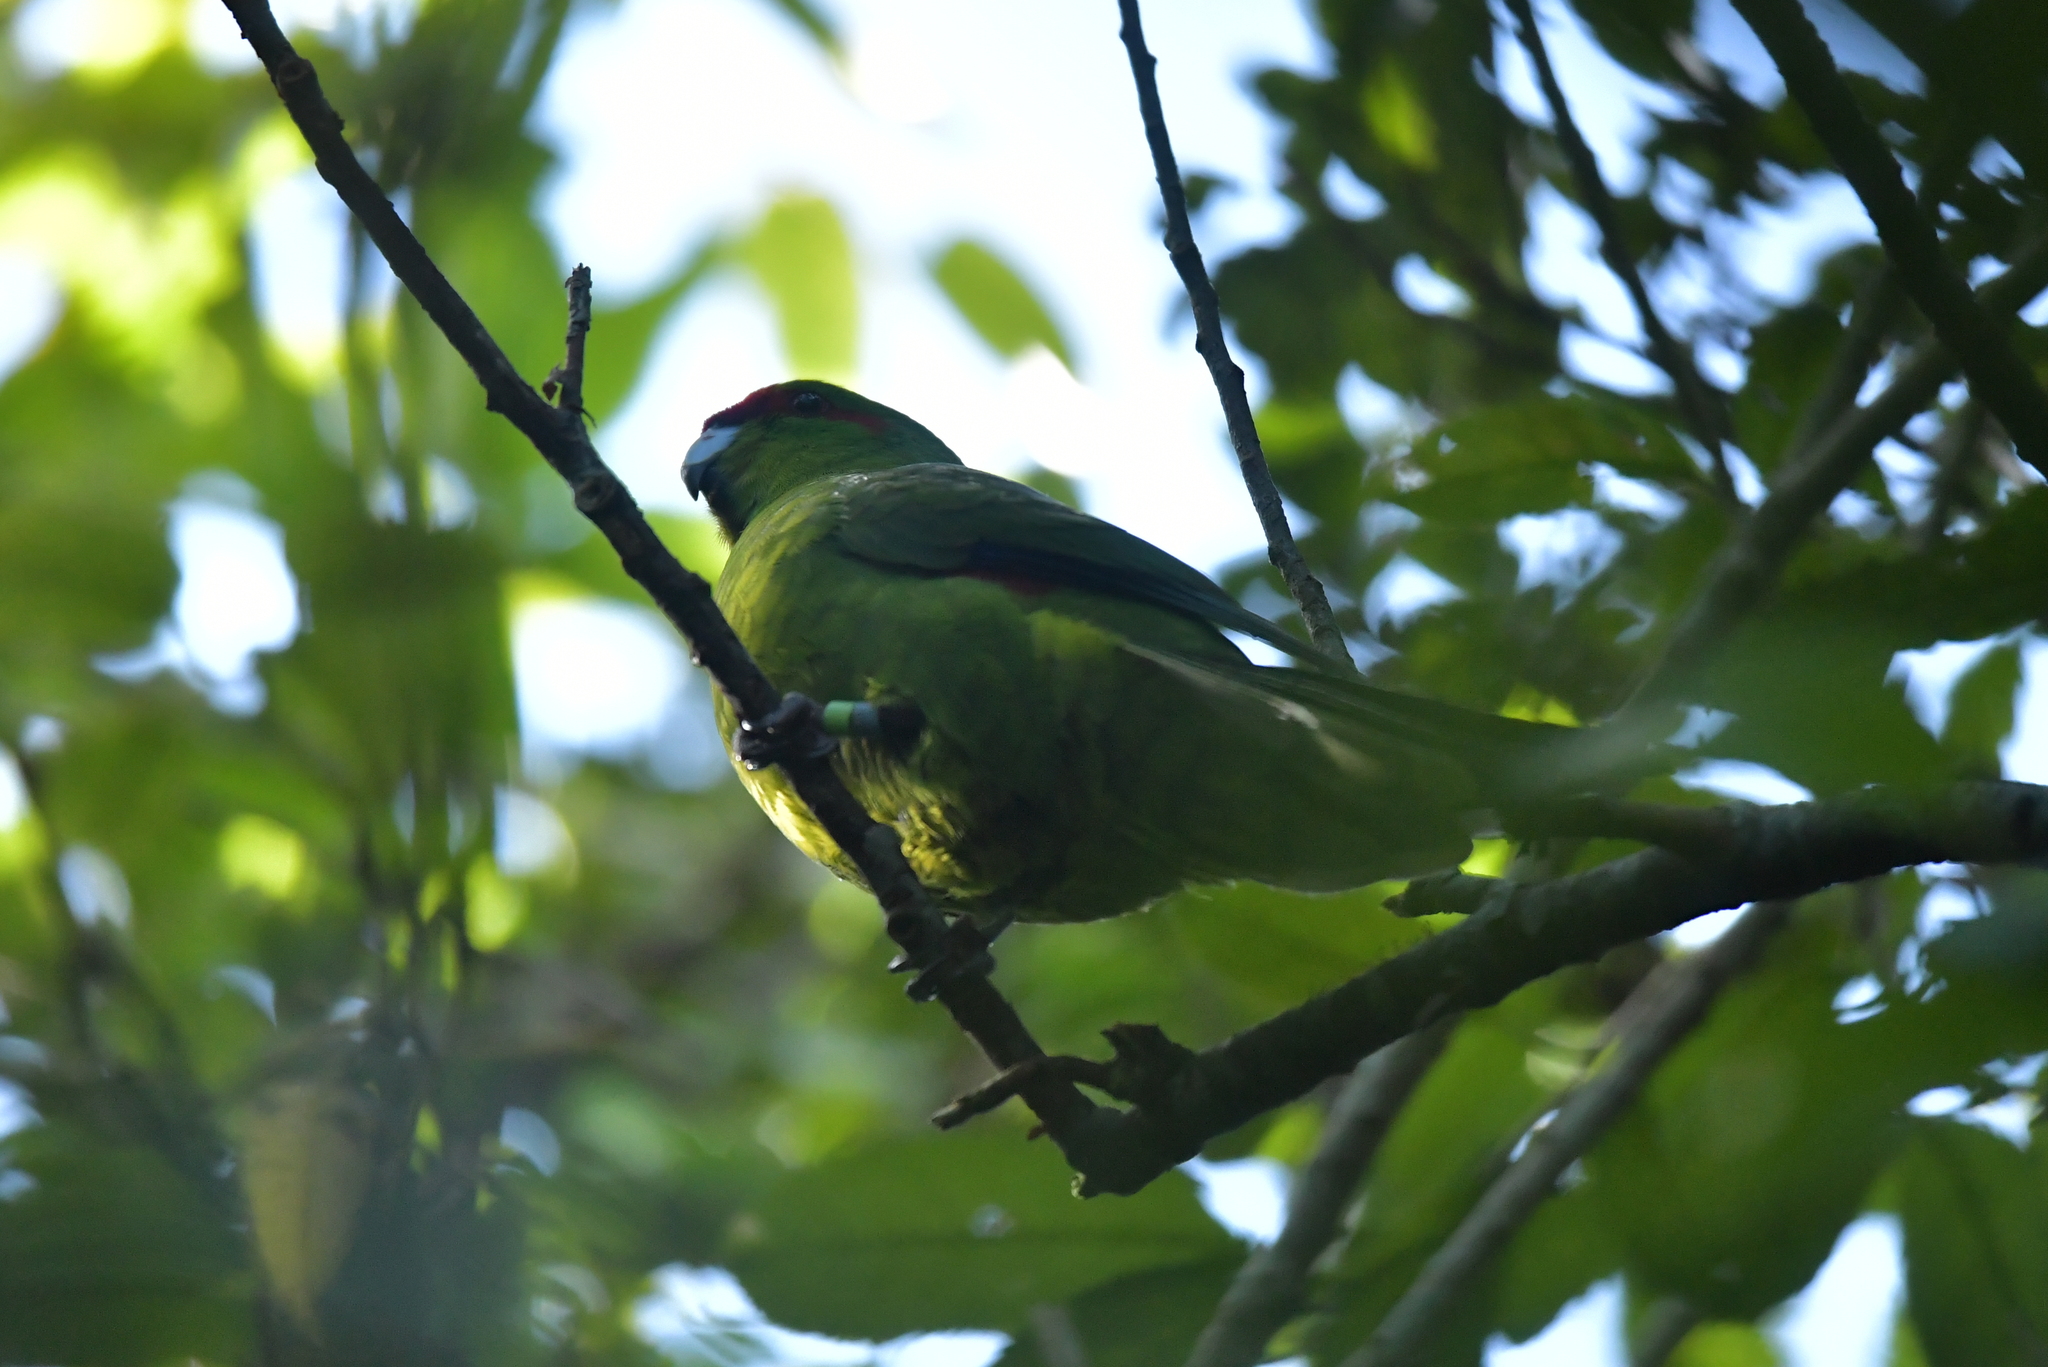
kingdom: Animalia
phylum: Chordata
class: Aves
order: Psittaciformes
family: Psittacidae
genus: Cyanoramphus
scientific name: Cyanoramphus novaezelandiae
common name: Red-fronted parakeet
